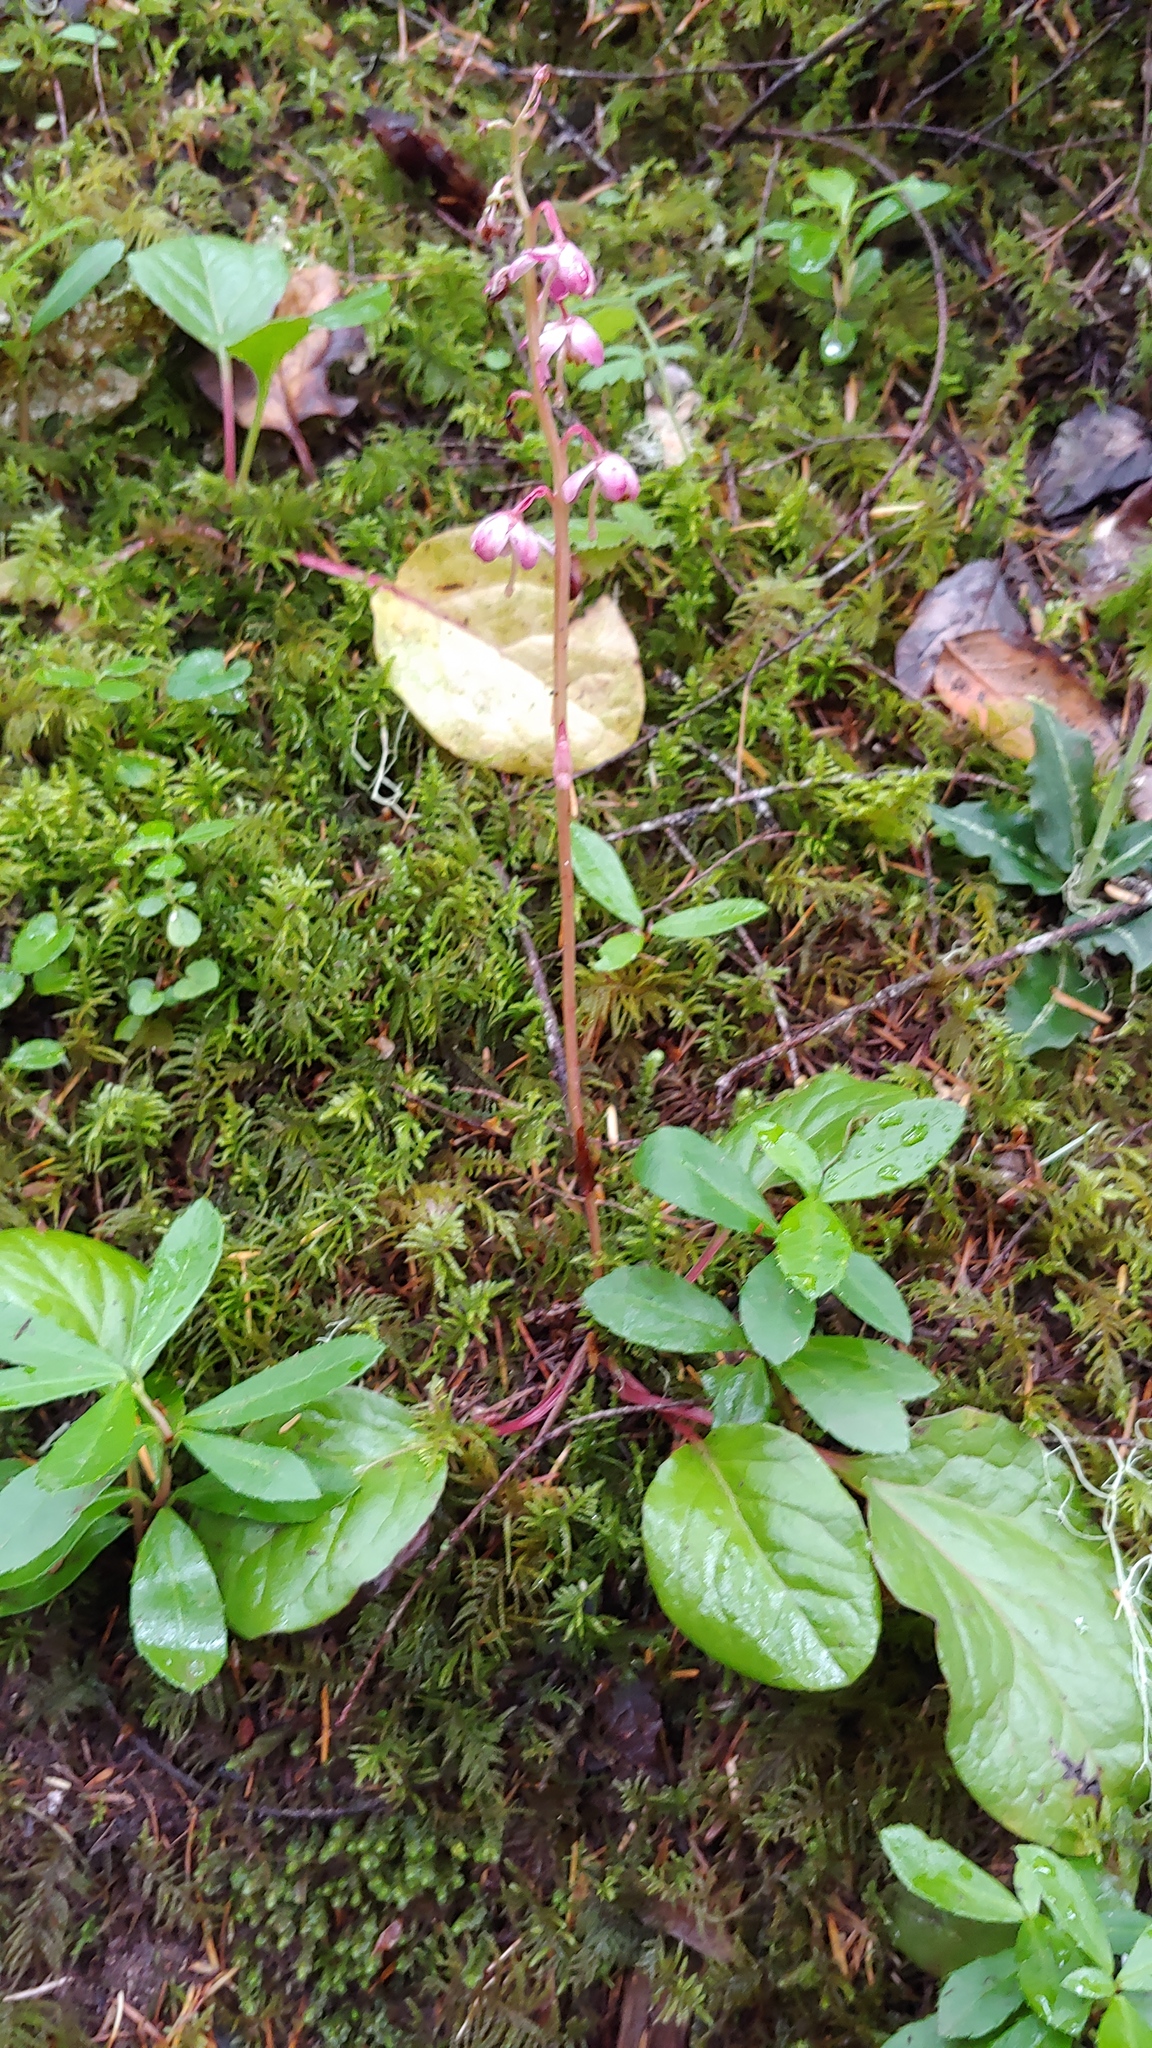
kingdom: Plantae
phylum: Tracheophyta
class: Magnoliopsida
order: Ericales
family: Ericaceae
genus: Pyrola
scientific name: Pyrola asarifolia
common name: Bog wintergreen
